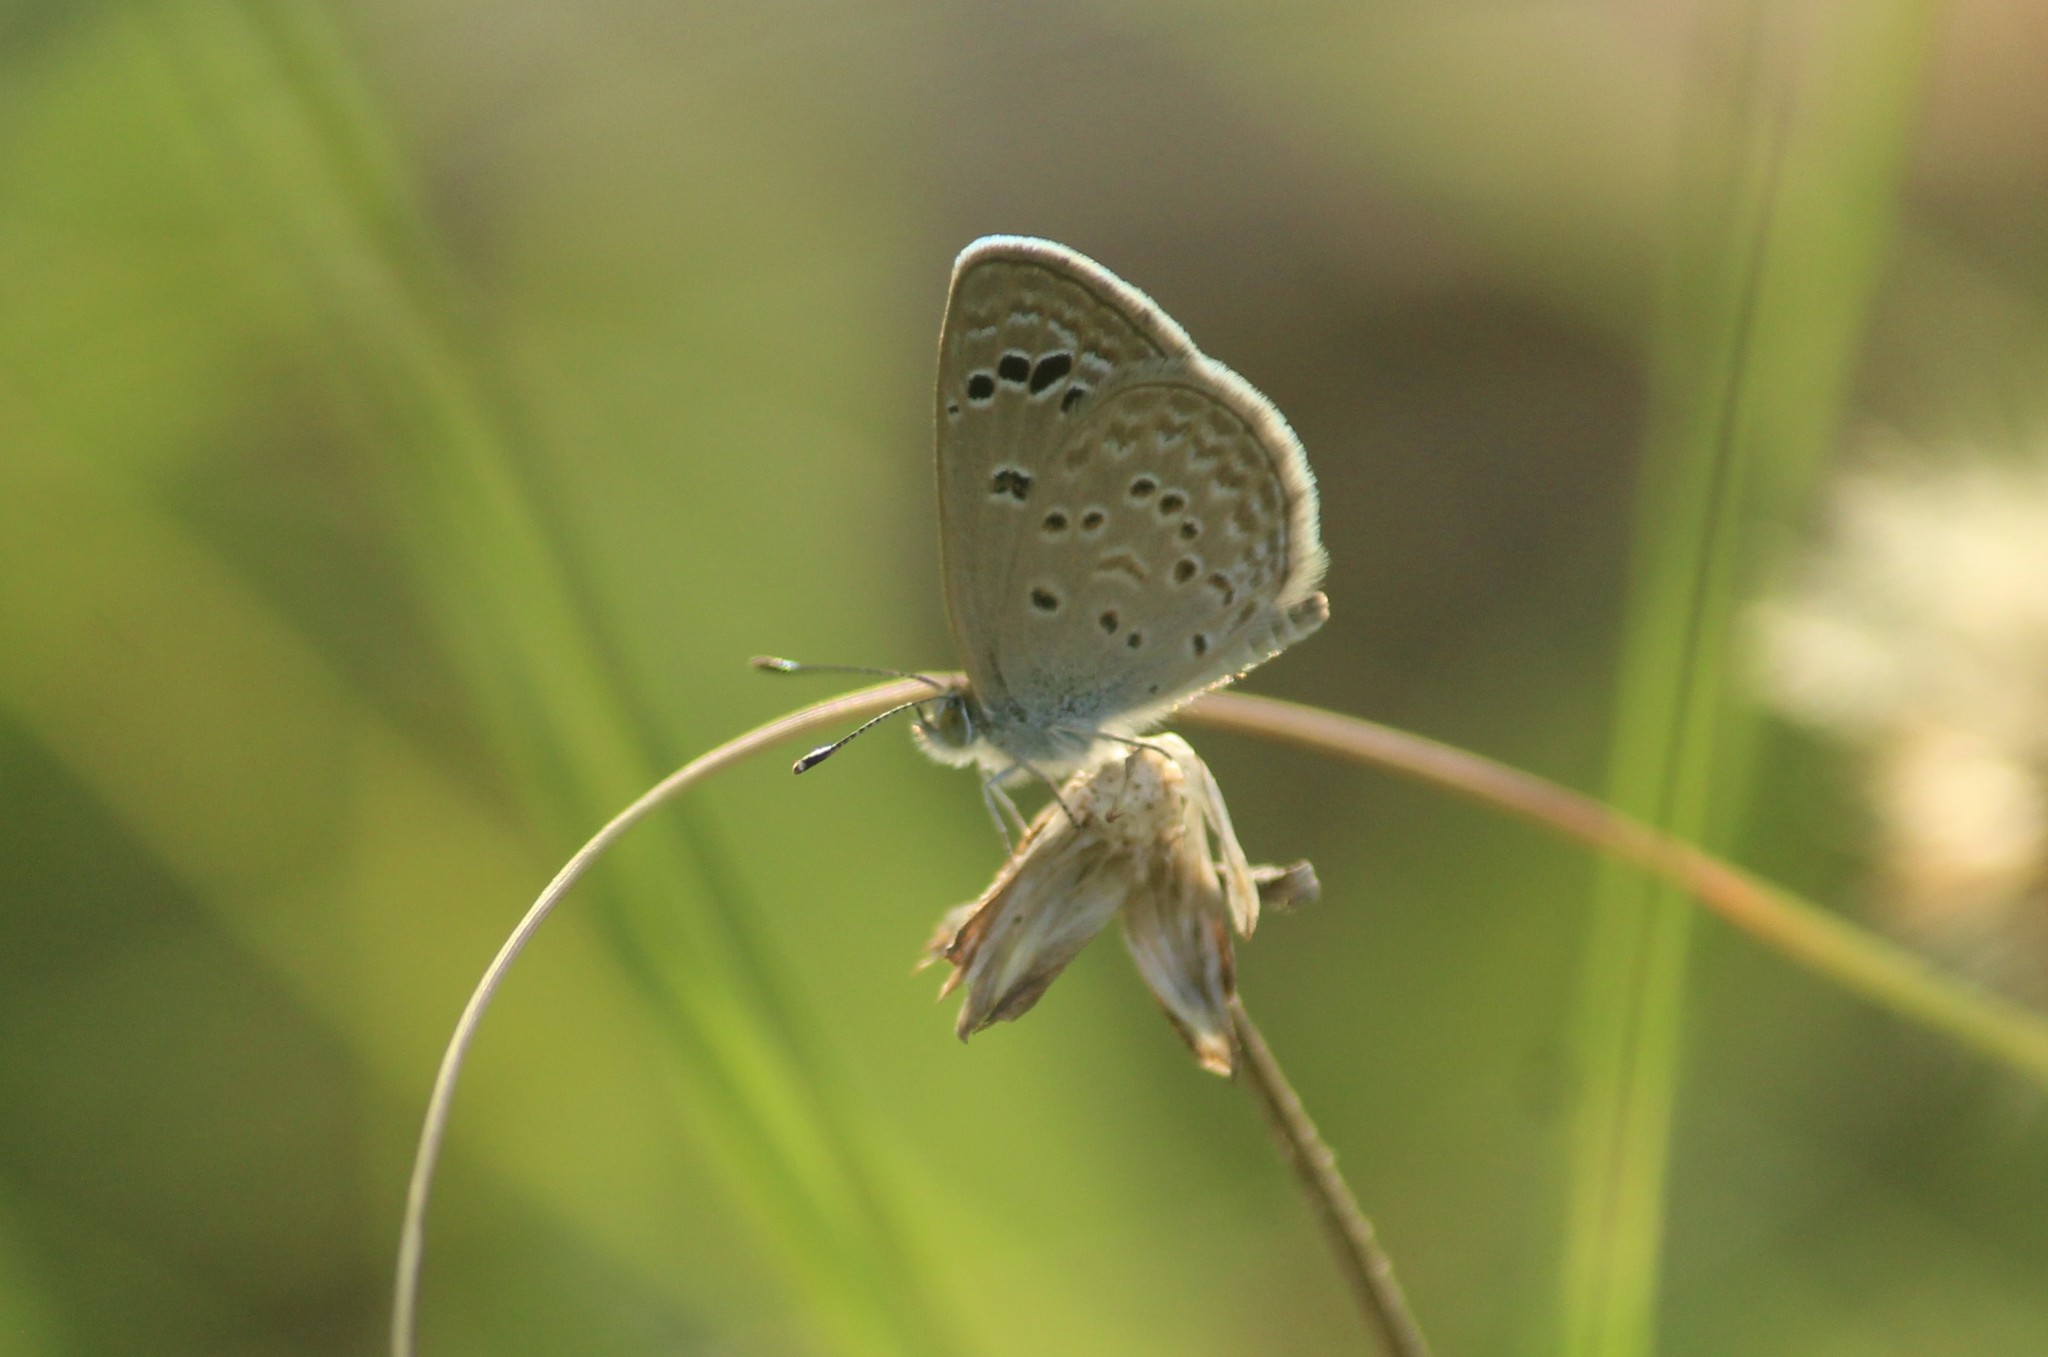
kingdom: Animalia
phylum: Arthropoda
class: Insecta
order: Lepidoptera
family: Lycaenidae
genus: Zizina
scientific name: Zizina otis
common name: Lesser grass blue
